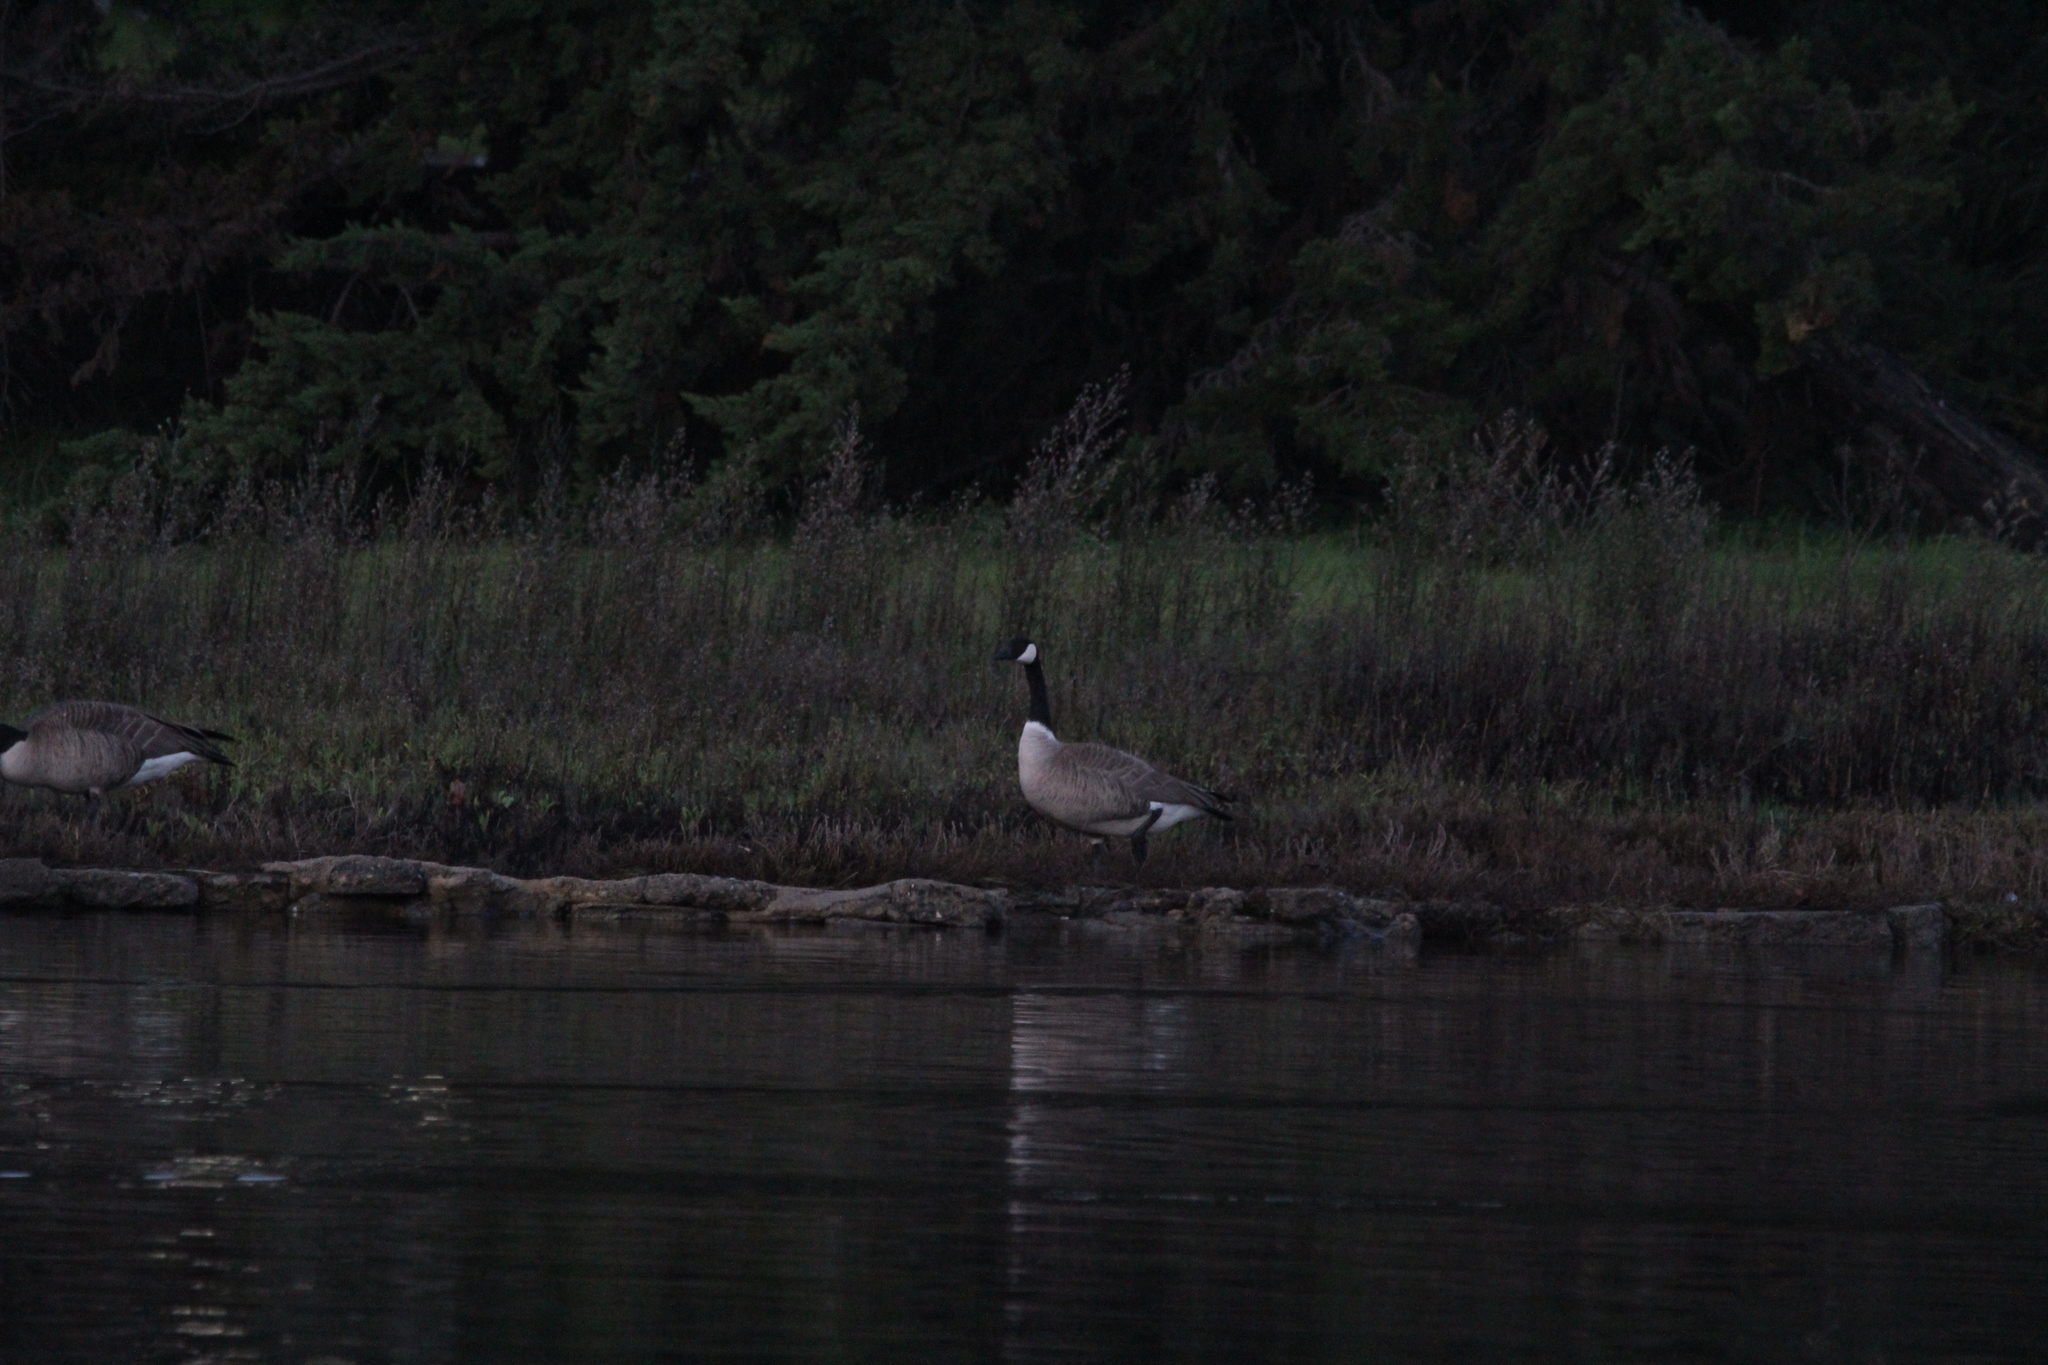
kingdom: Animalia
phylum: Chordata
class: Aves
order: Anseriformes
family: Anatidae
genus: Branta
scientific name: Branta canadensis
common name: Canada goose
